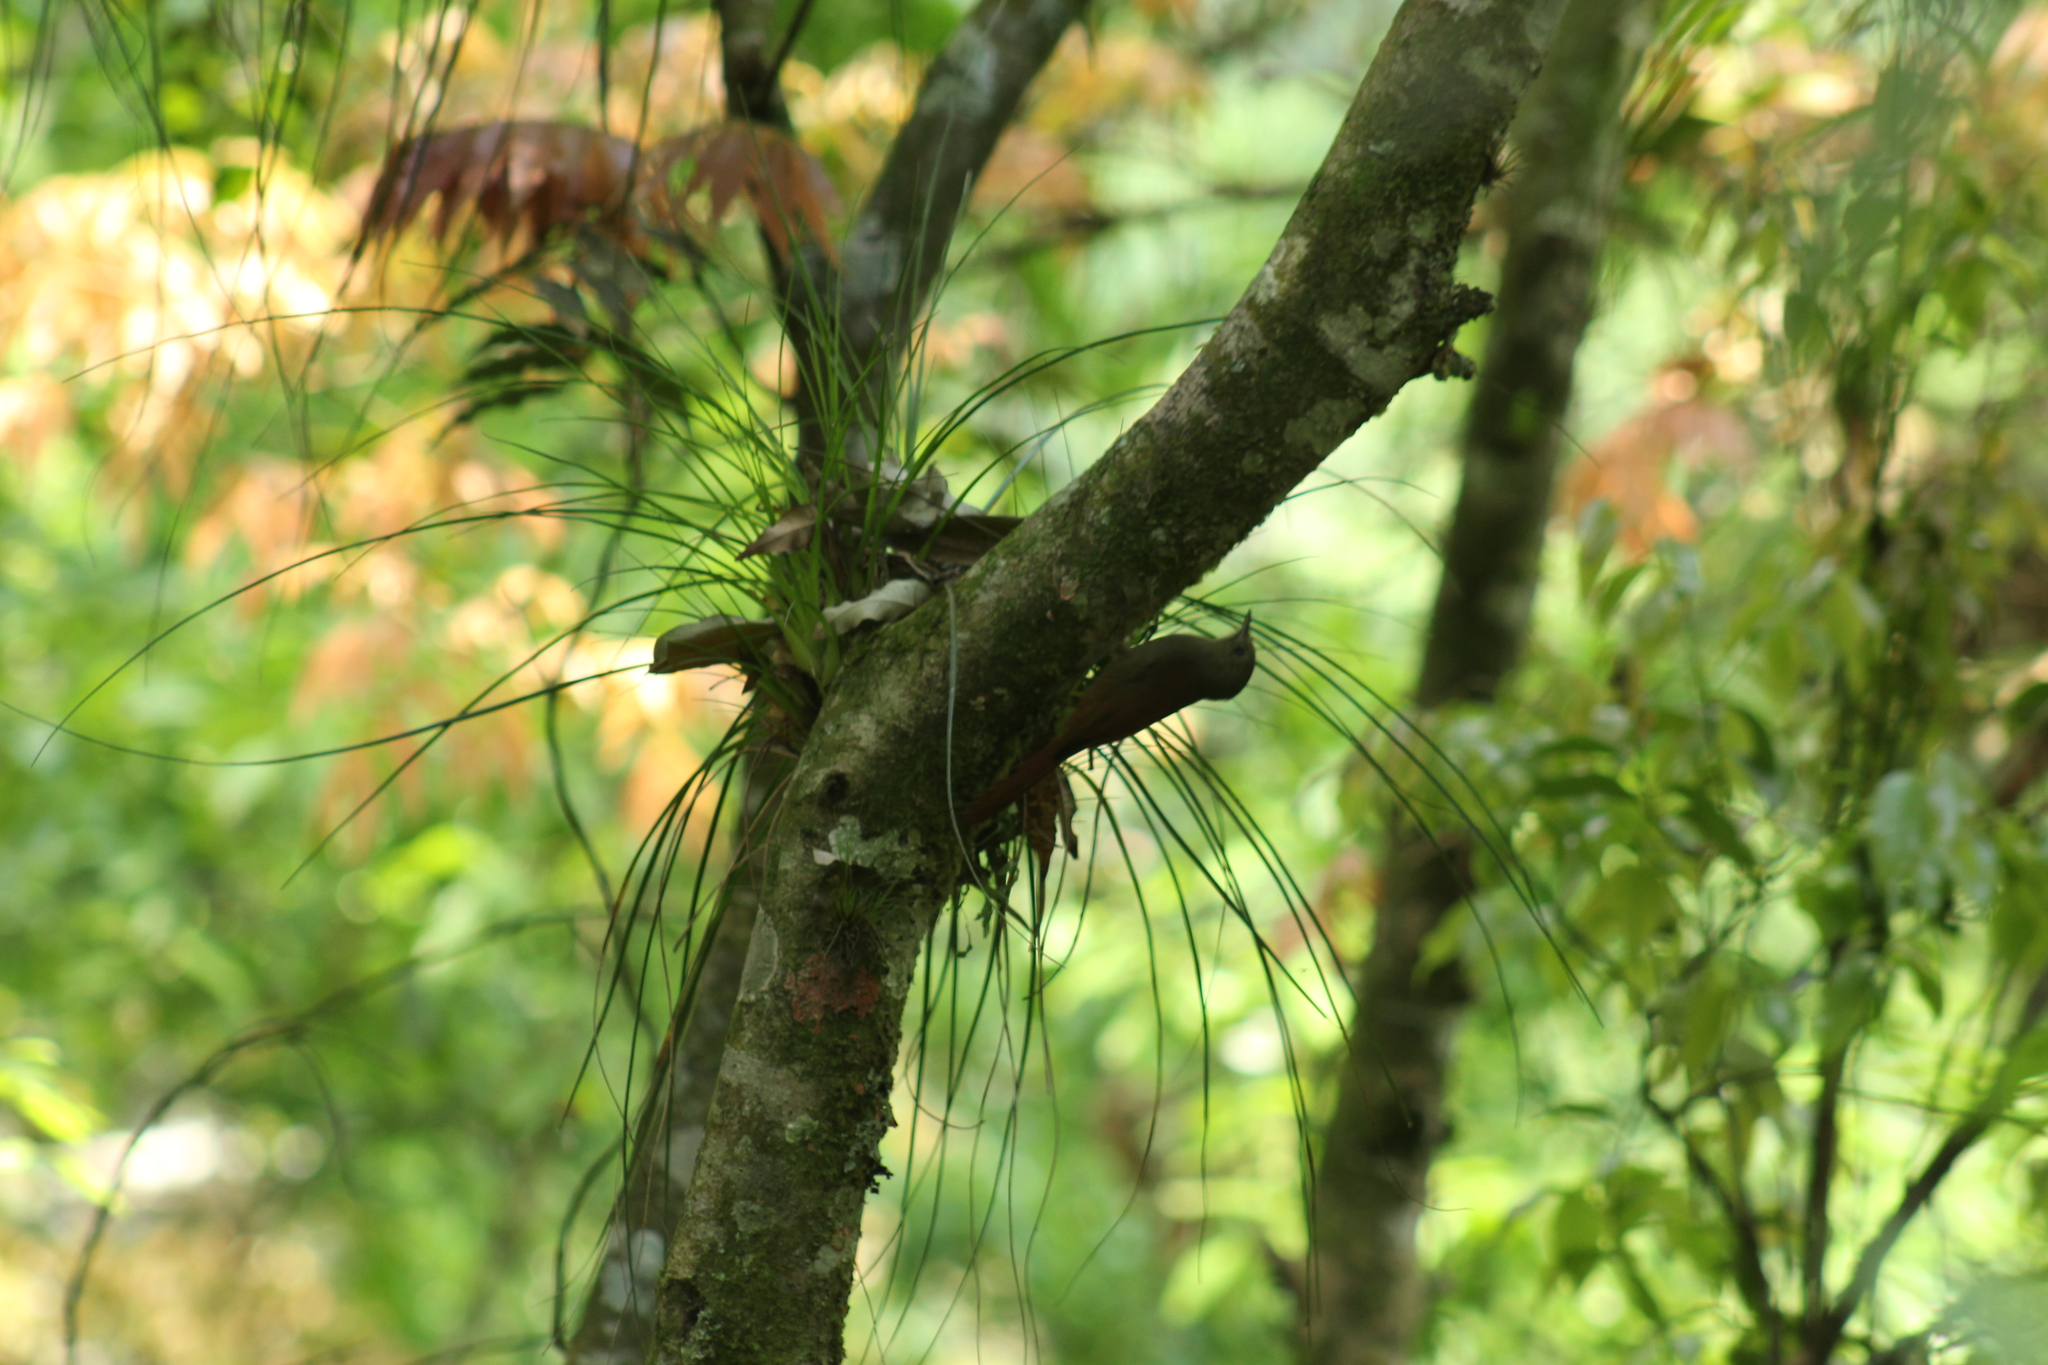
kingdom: Animalia
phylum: Chordata
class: Aves
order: Passeriformes
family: Furnariidae
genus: Sittasomus
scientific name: Sittasomus griseicapillus
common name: Olivaceous woodcreeper
